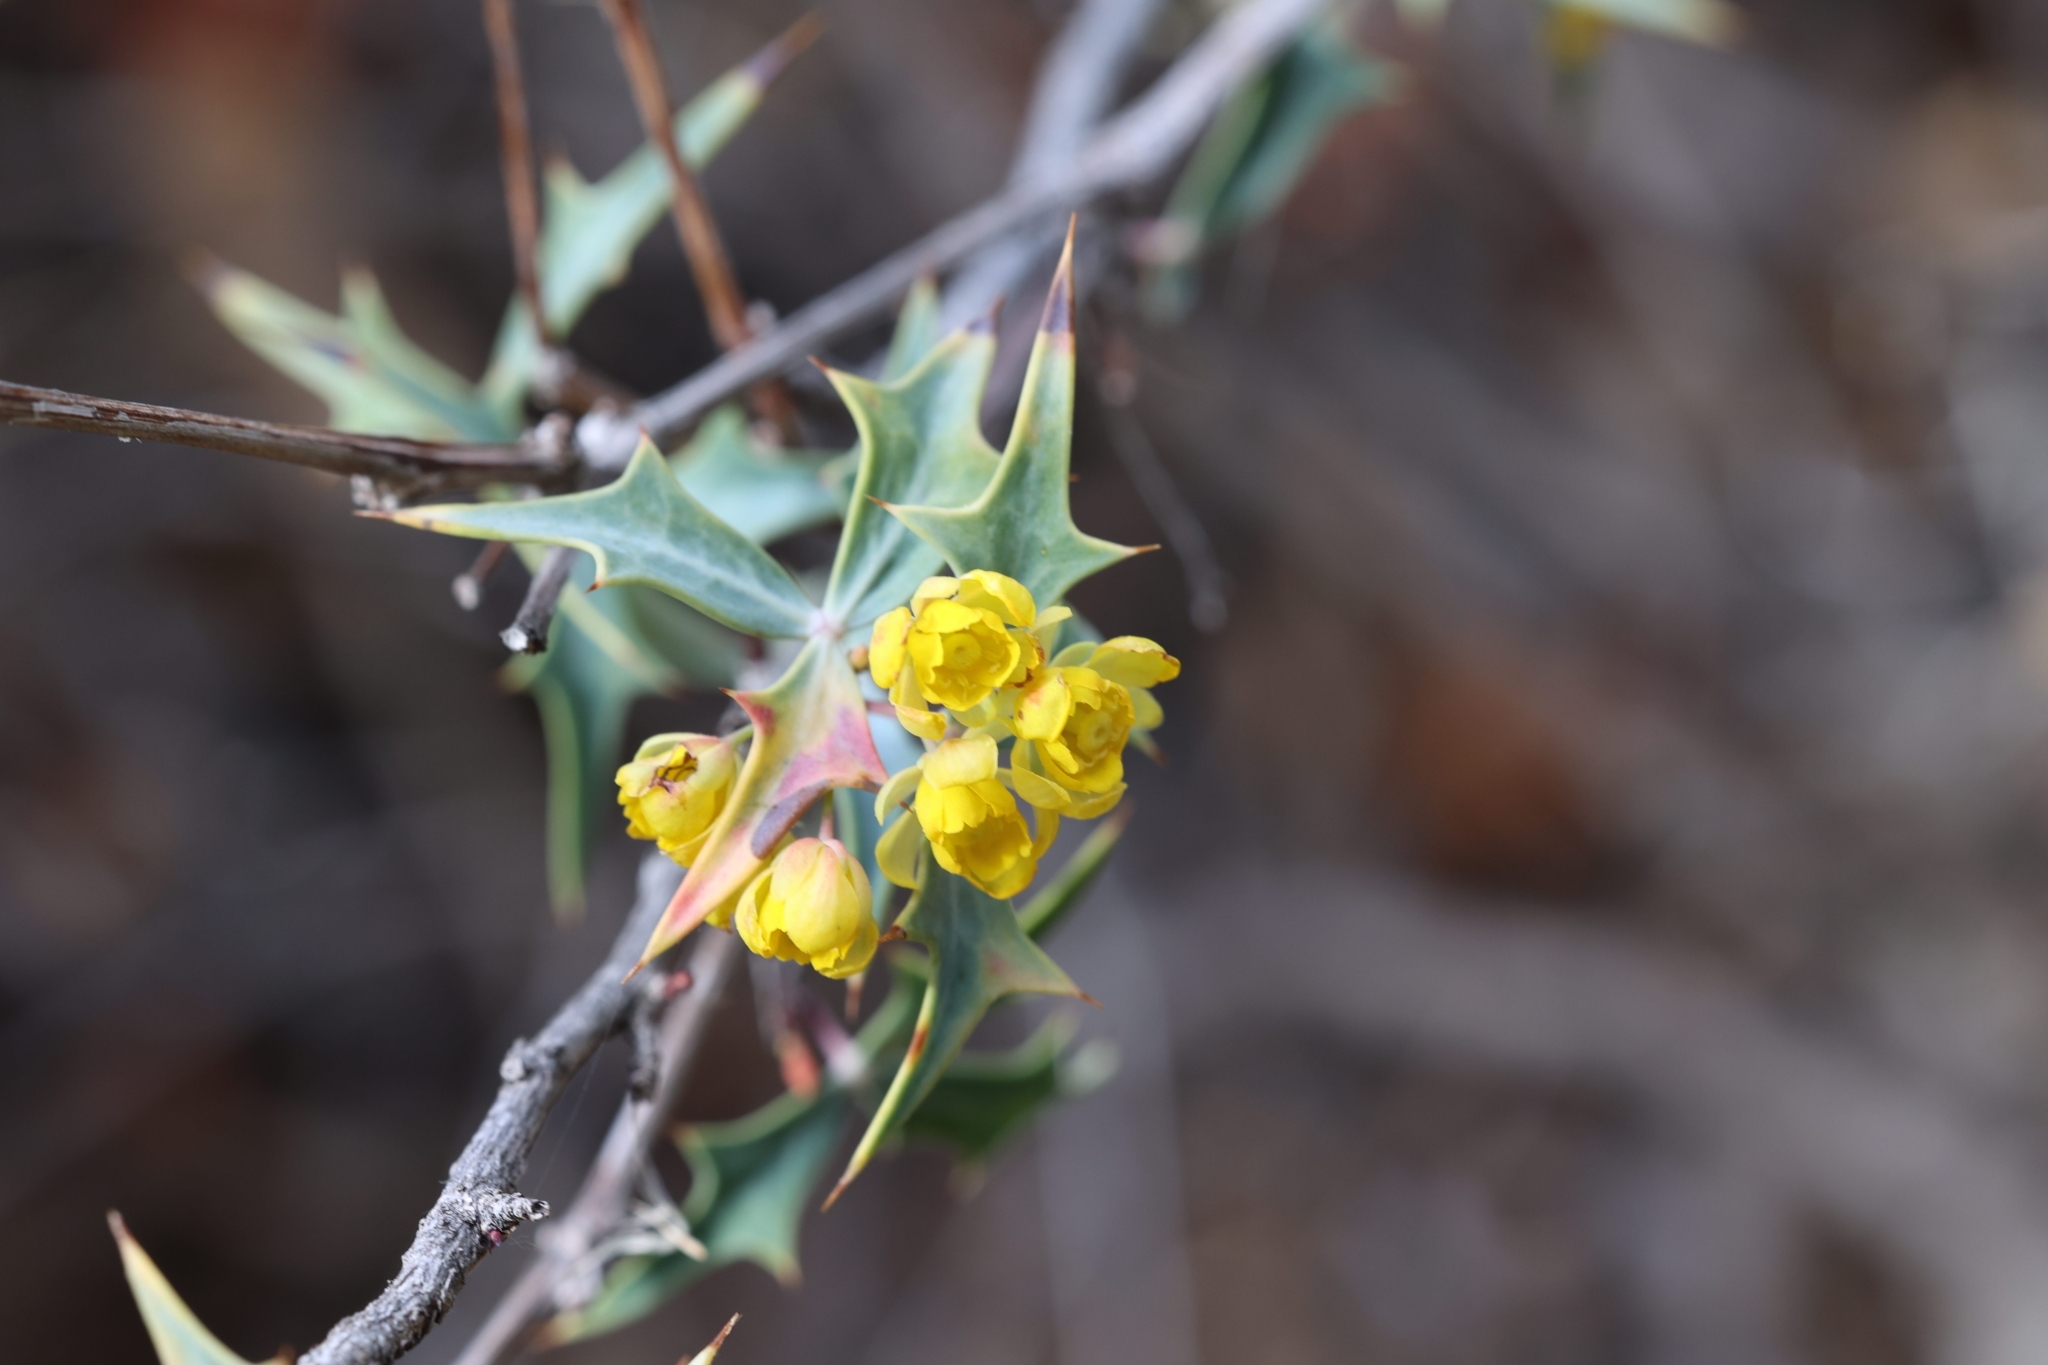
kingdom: Plantae
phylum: Tracheophyta
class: Magnoliopsida
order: Ranunculales
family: Berberidaceae
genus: Alloberberis
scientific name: Alloberberis trifoliolata
